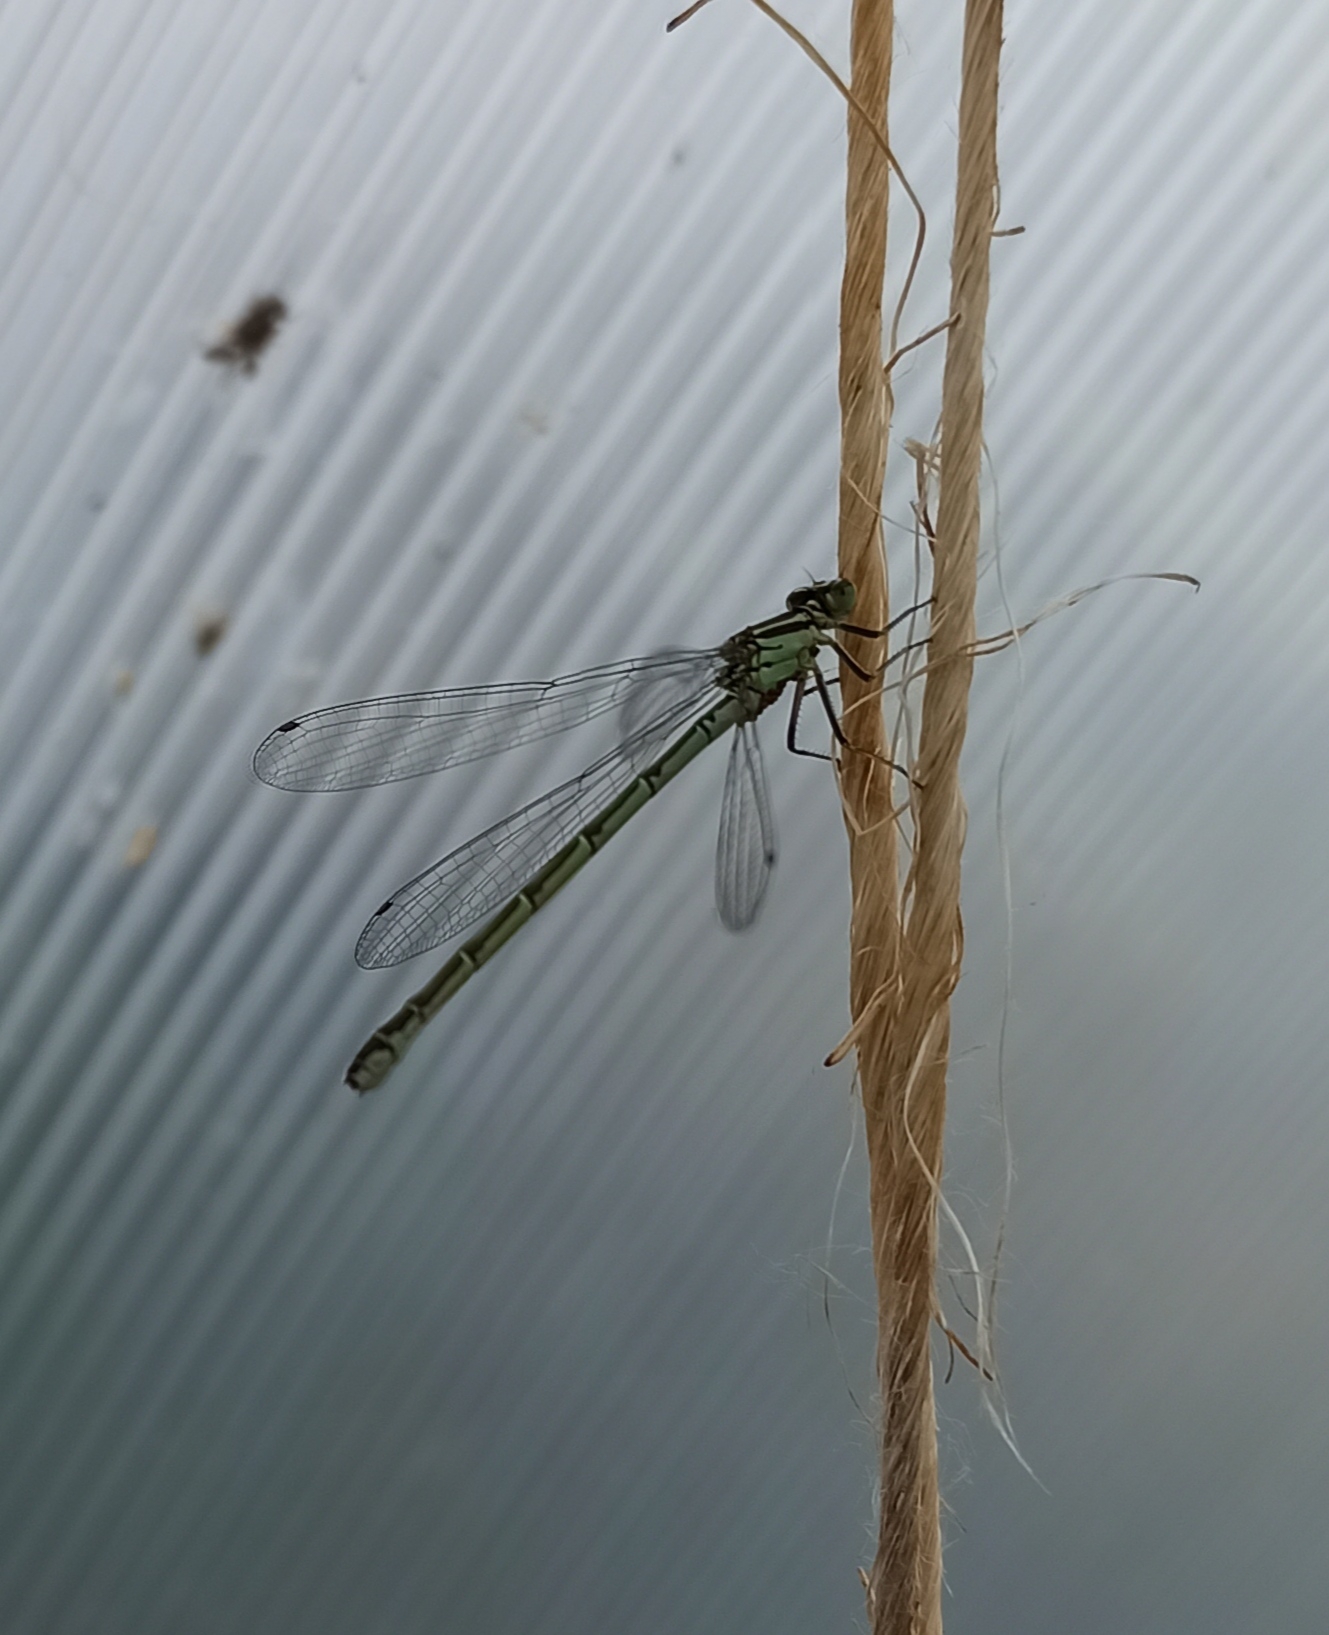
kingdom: Animalia
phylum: Arthropoda
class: Insecta
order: Odonata
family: Coenagrionidae
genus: Coenagrion
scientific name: Coenagrion hastulatum
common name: Spearhead bluet
